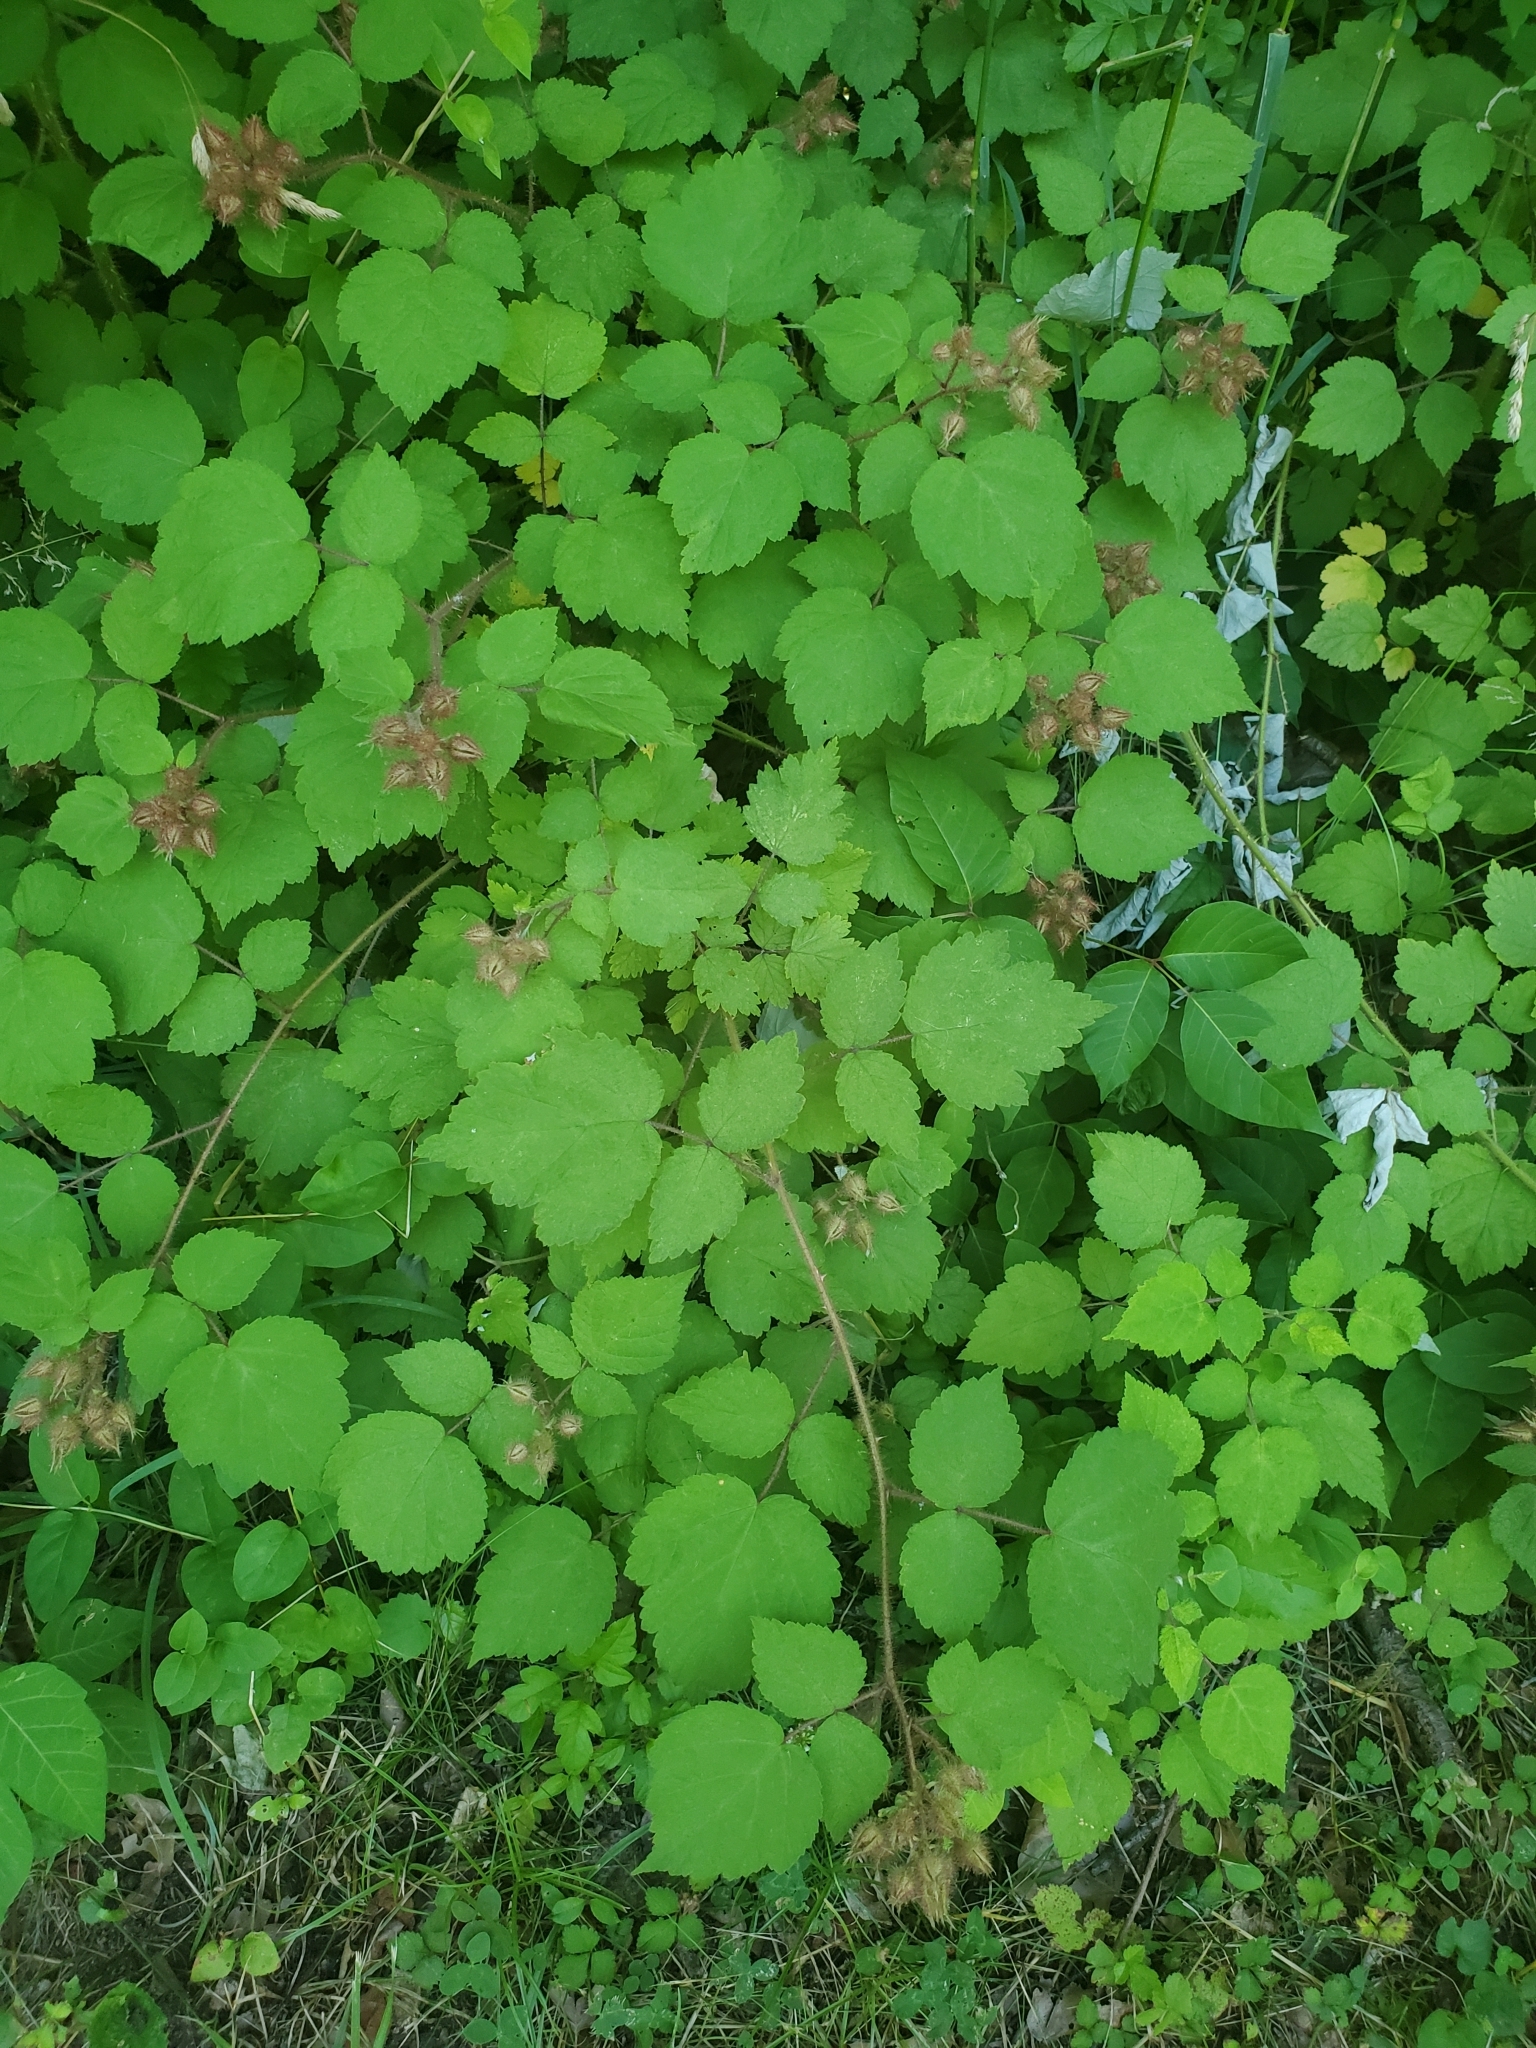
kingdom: Plantae
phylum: Tracheophyta
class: Magnoliopsida
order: Rosales
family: Rosaceae
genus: Rubus
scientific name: Rubus phoenicolasius
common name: Japanese wineberry
